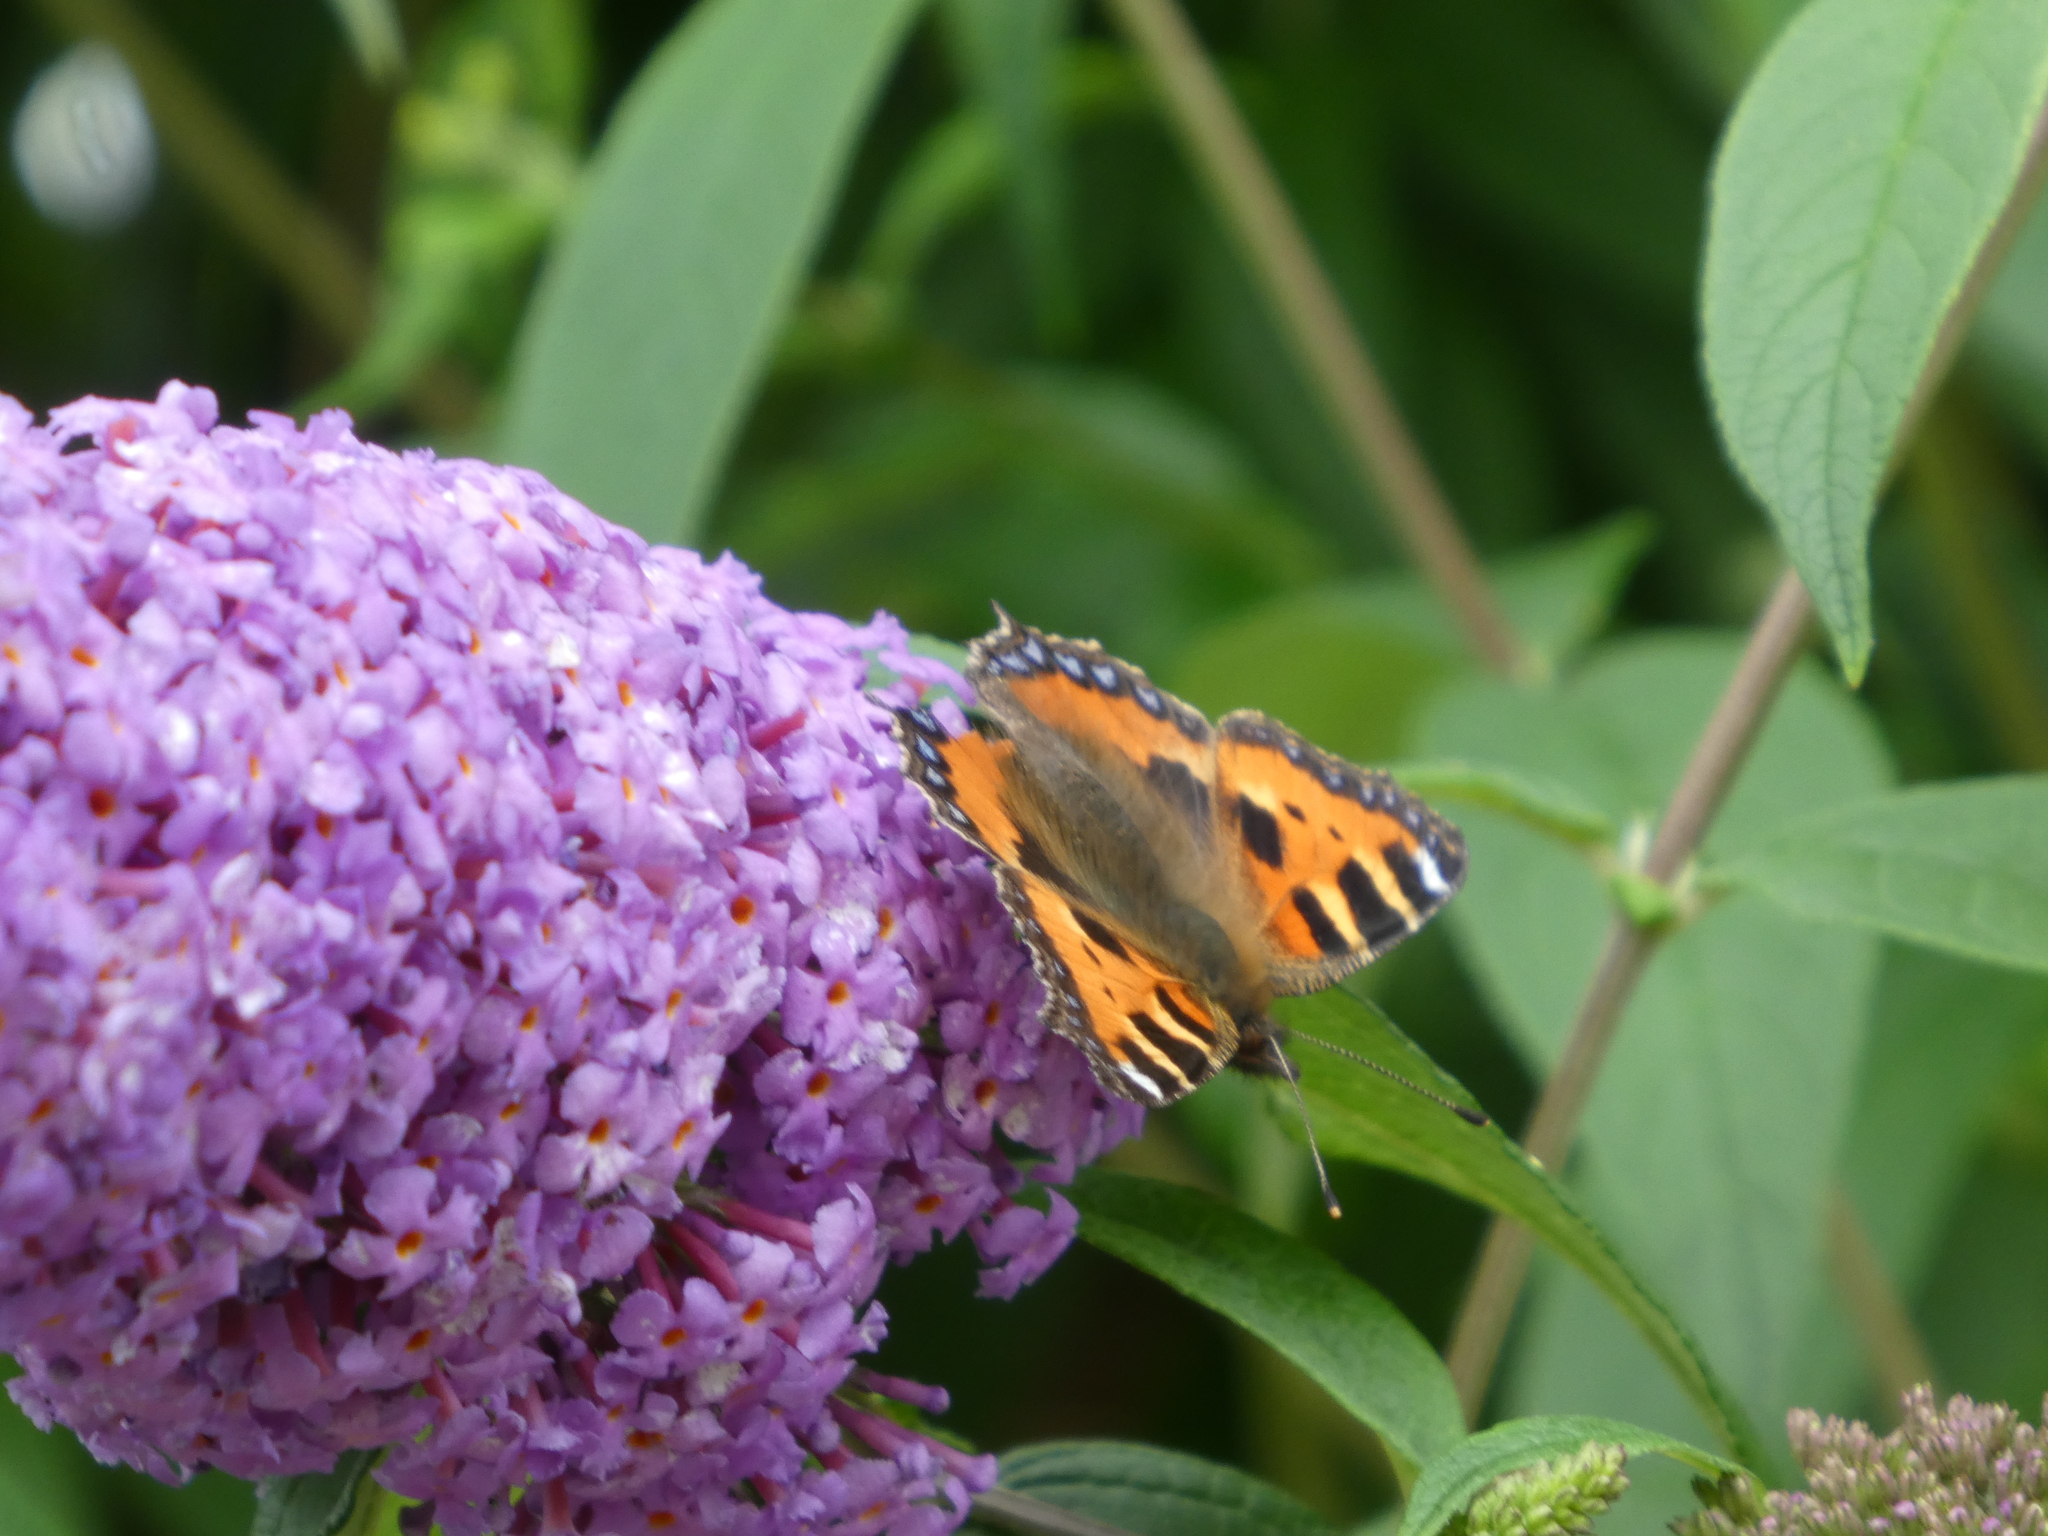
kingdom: Animalia
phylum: Arthropoda
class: Insecta
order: Lepidoptera
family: Nymphalidae
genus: Aglais
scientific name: Aglais urticae
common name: Small tortoiseshell
